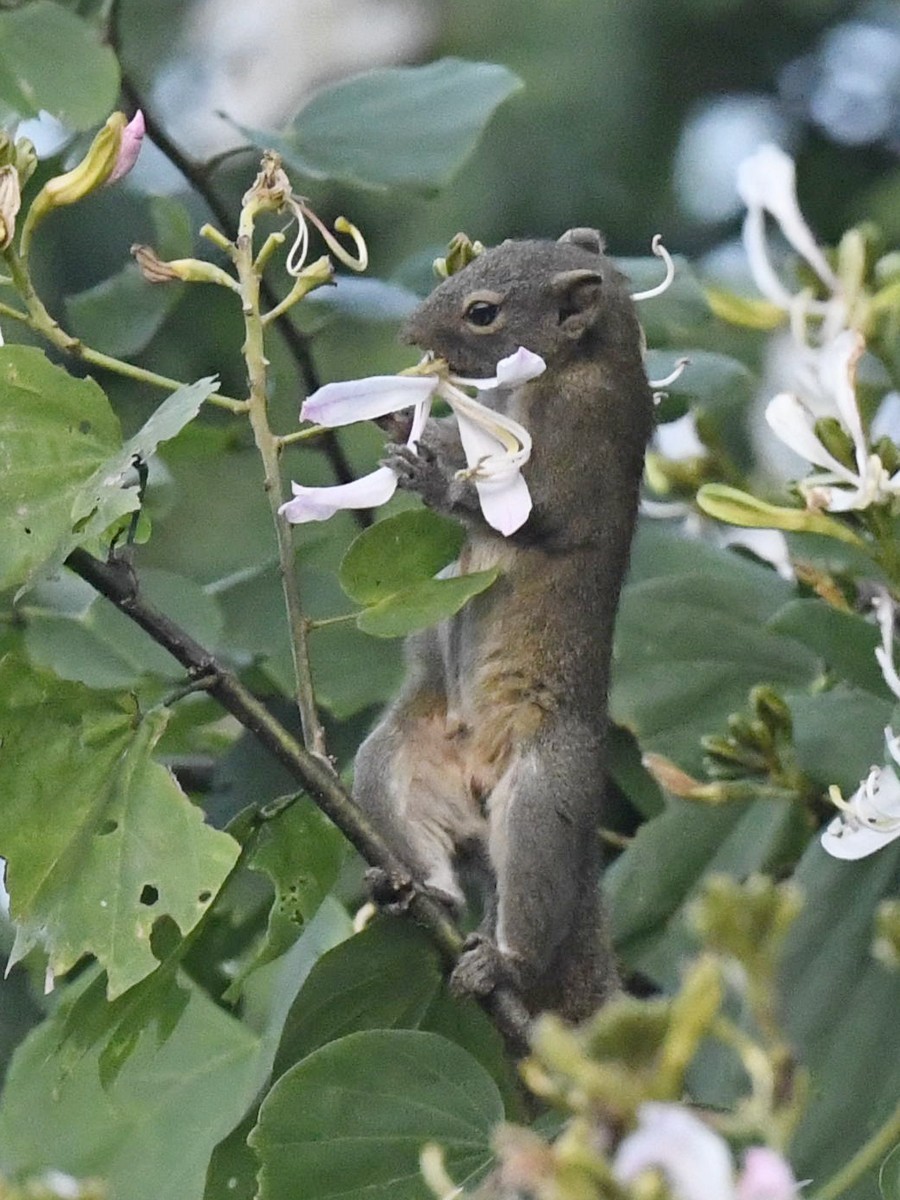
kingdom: Animalia
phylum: Chordata
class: Mammalia
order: Rodentia
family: Sciuridae
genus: Callosciurus
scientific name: Callosciurus pygerythrus
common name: Irrawaddy squirrel
